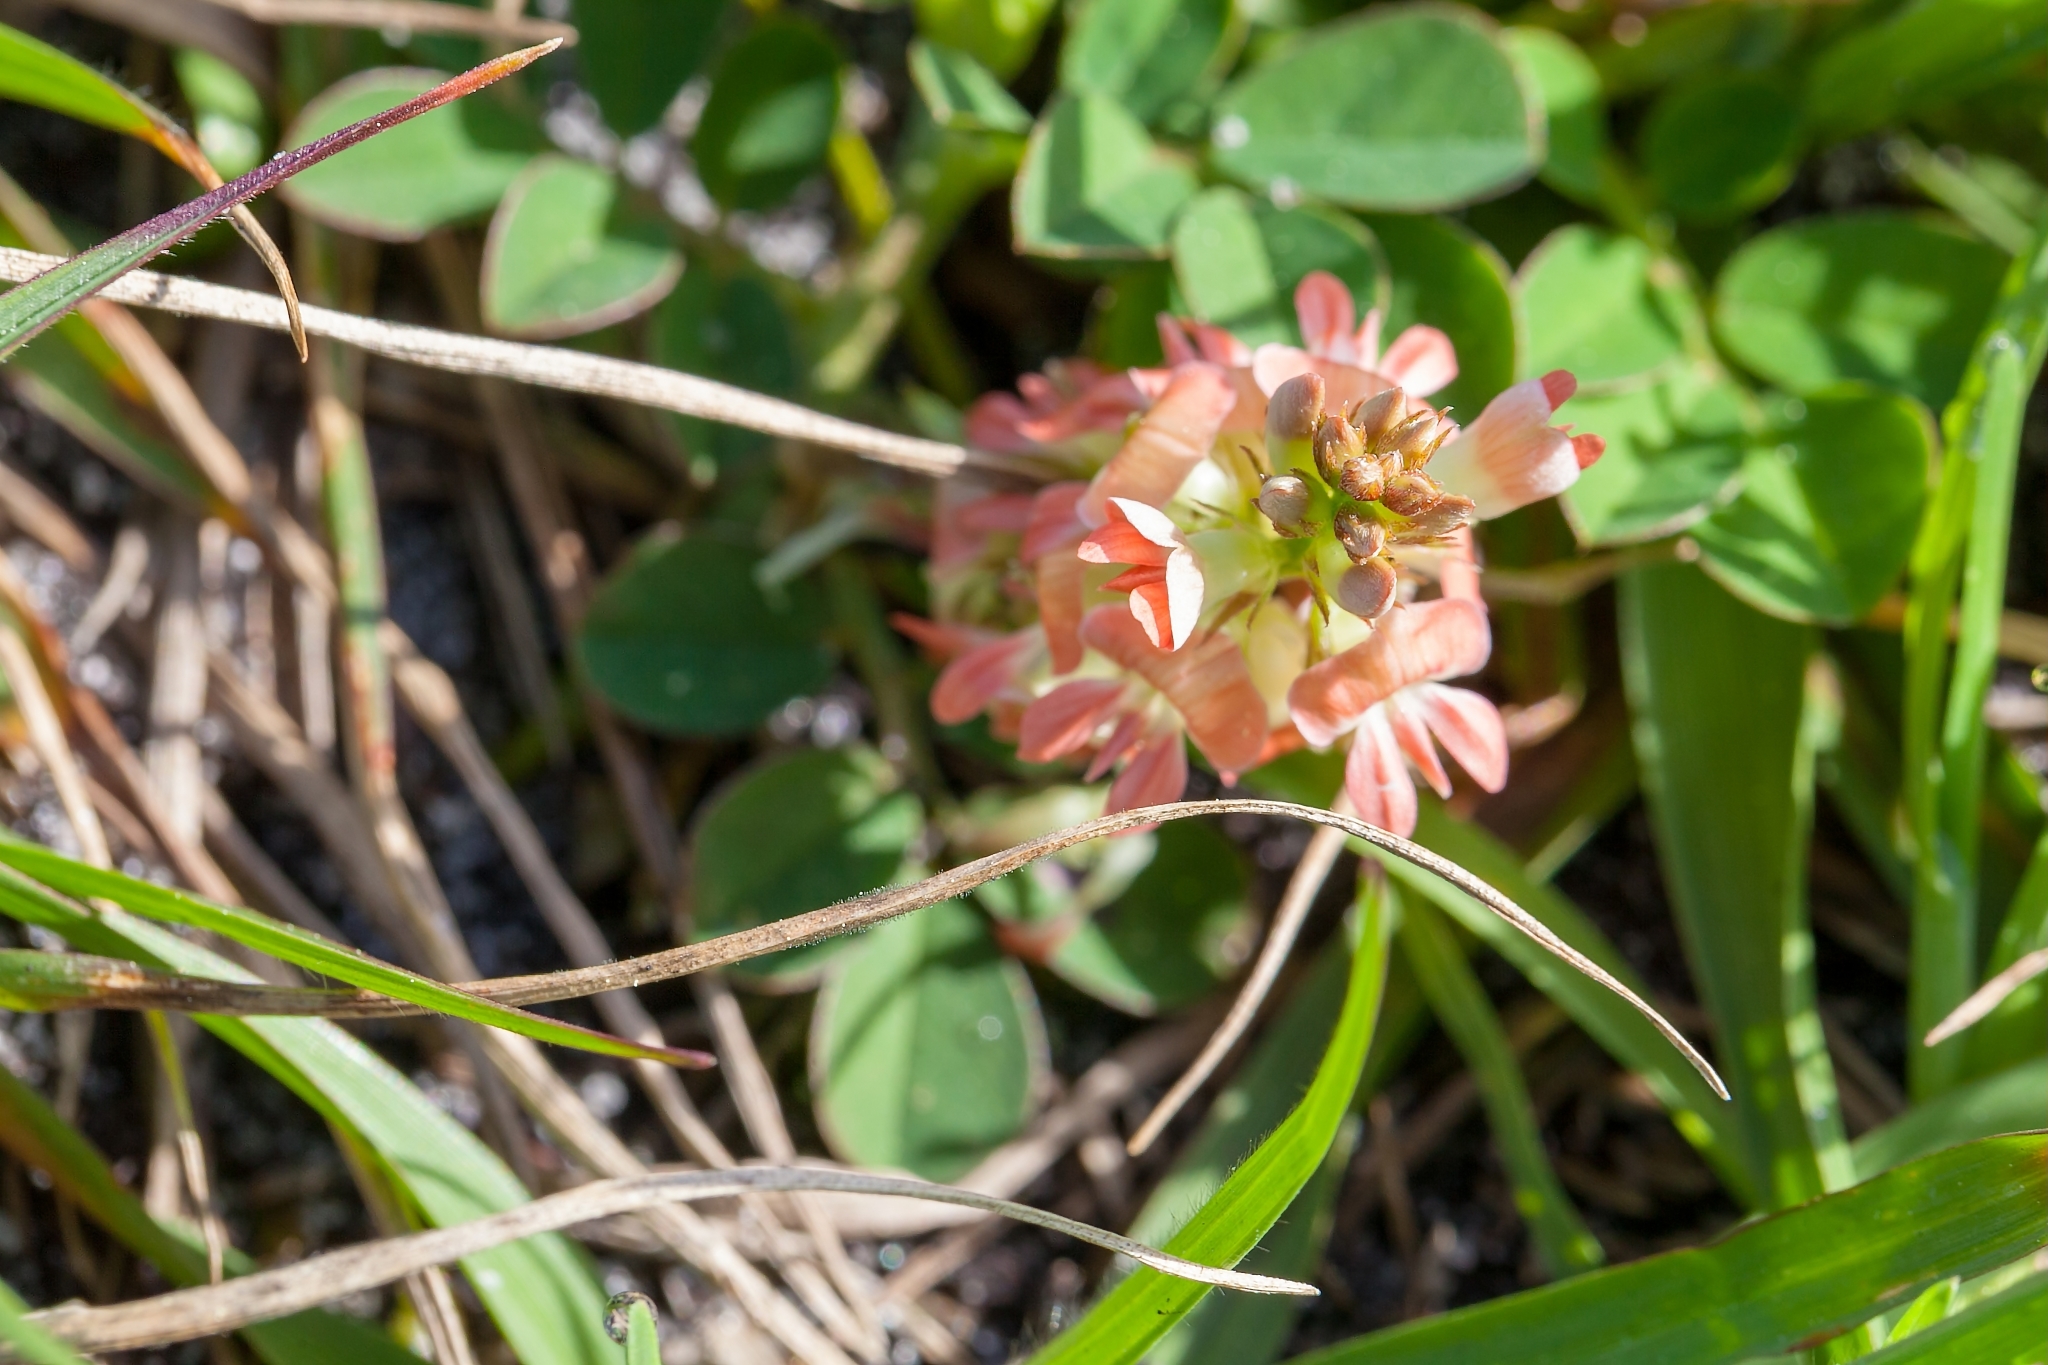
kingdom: Plantae
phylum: Tracheophyta
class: Magnoliopsida
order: Fabales
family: Fabaceae
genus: Indigofera
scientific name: Indigofera spicata
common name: Creeping indigo
